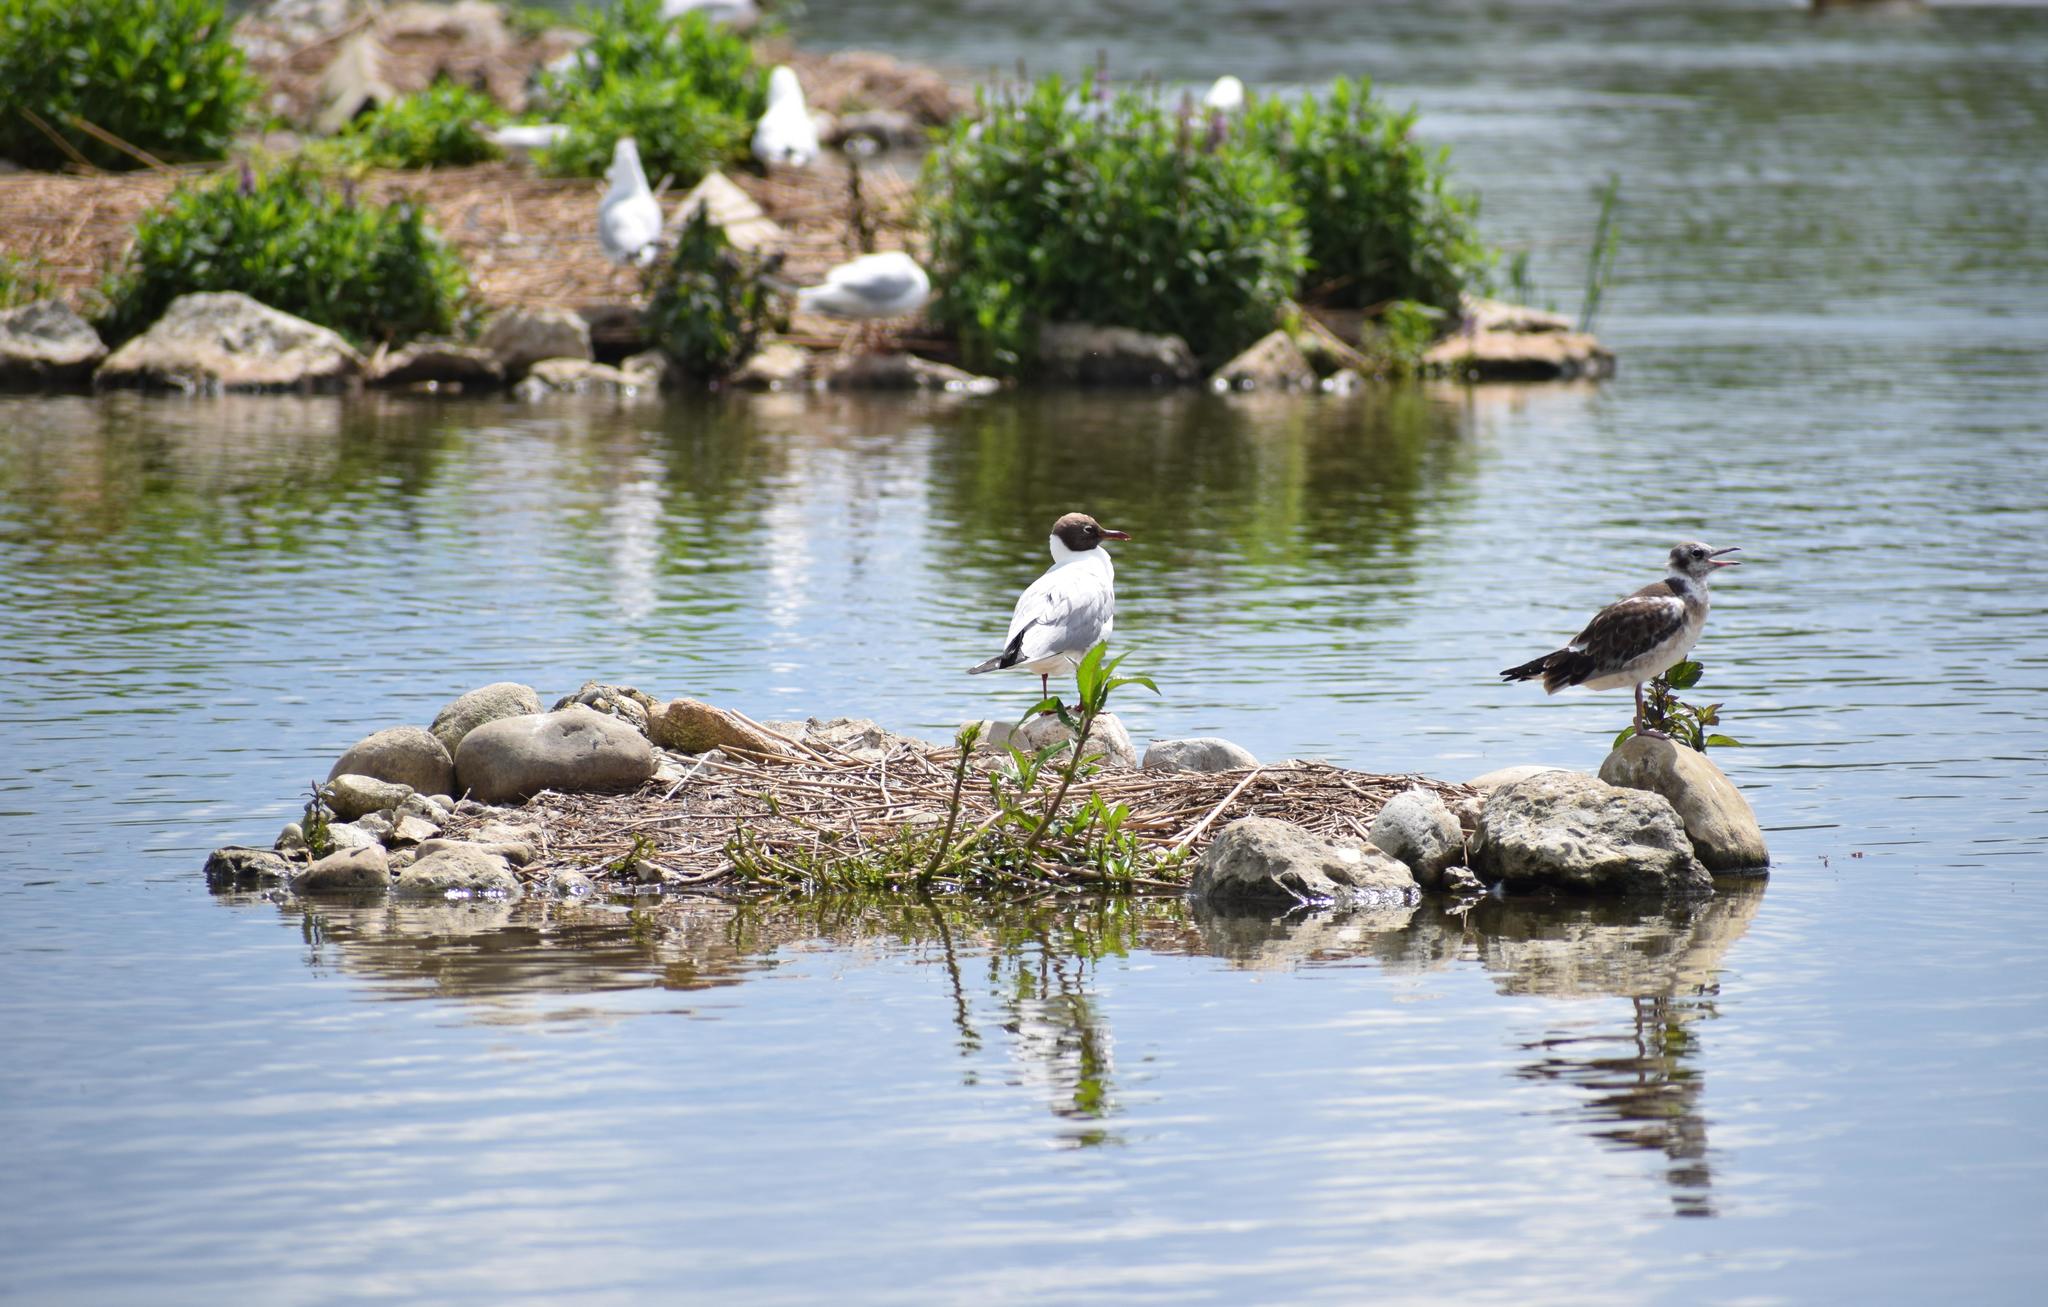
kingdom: Animalia
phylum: Chordata
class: Aves
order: Charadriiformes
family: Laridae
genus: Chroicocephalus
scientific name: Chroicocephalus ridibundus
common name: Black-headed gull
